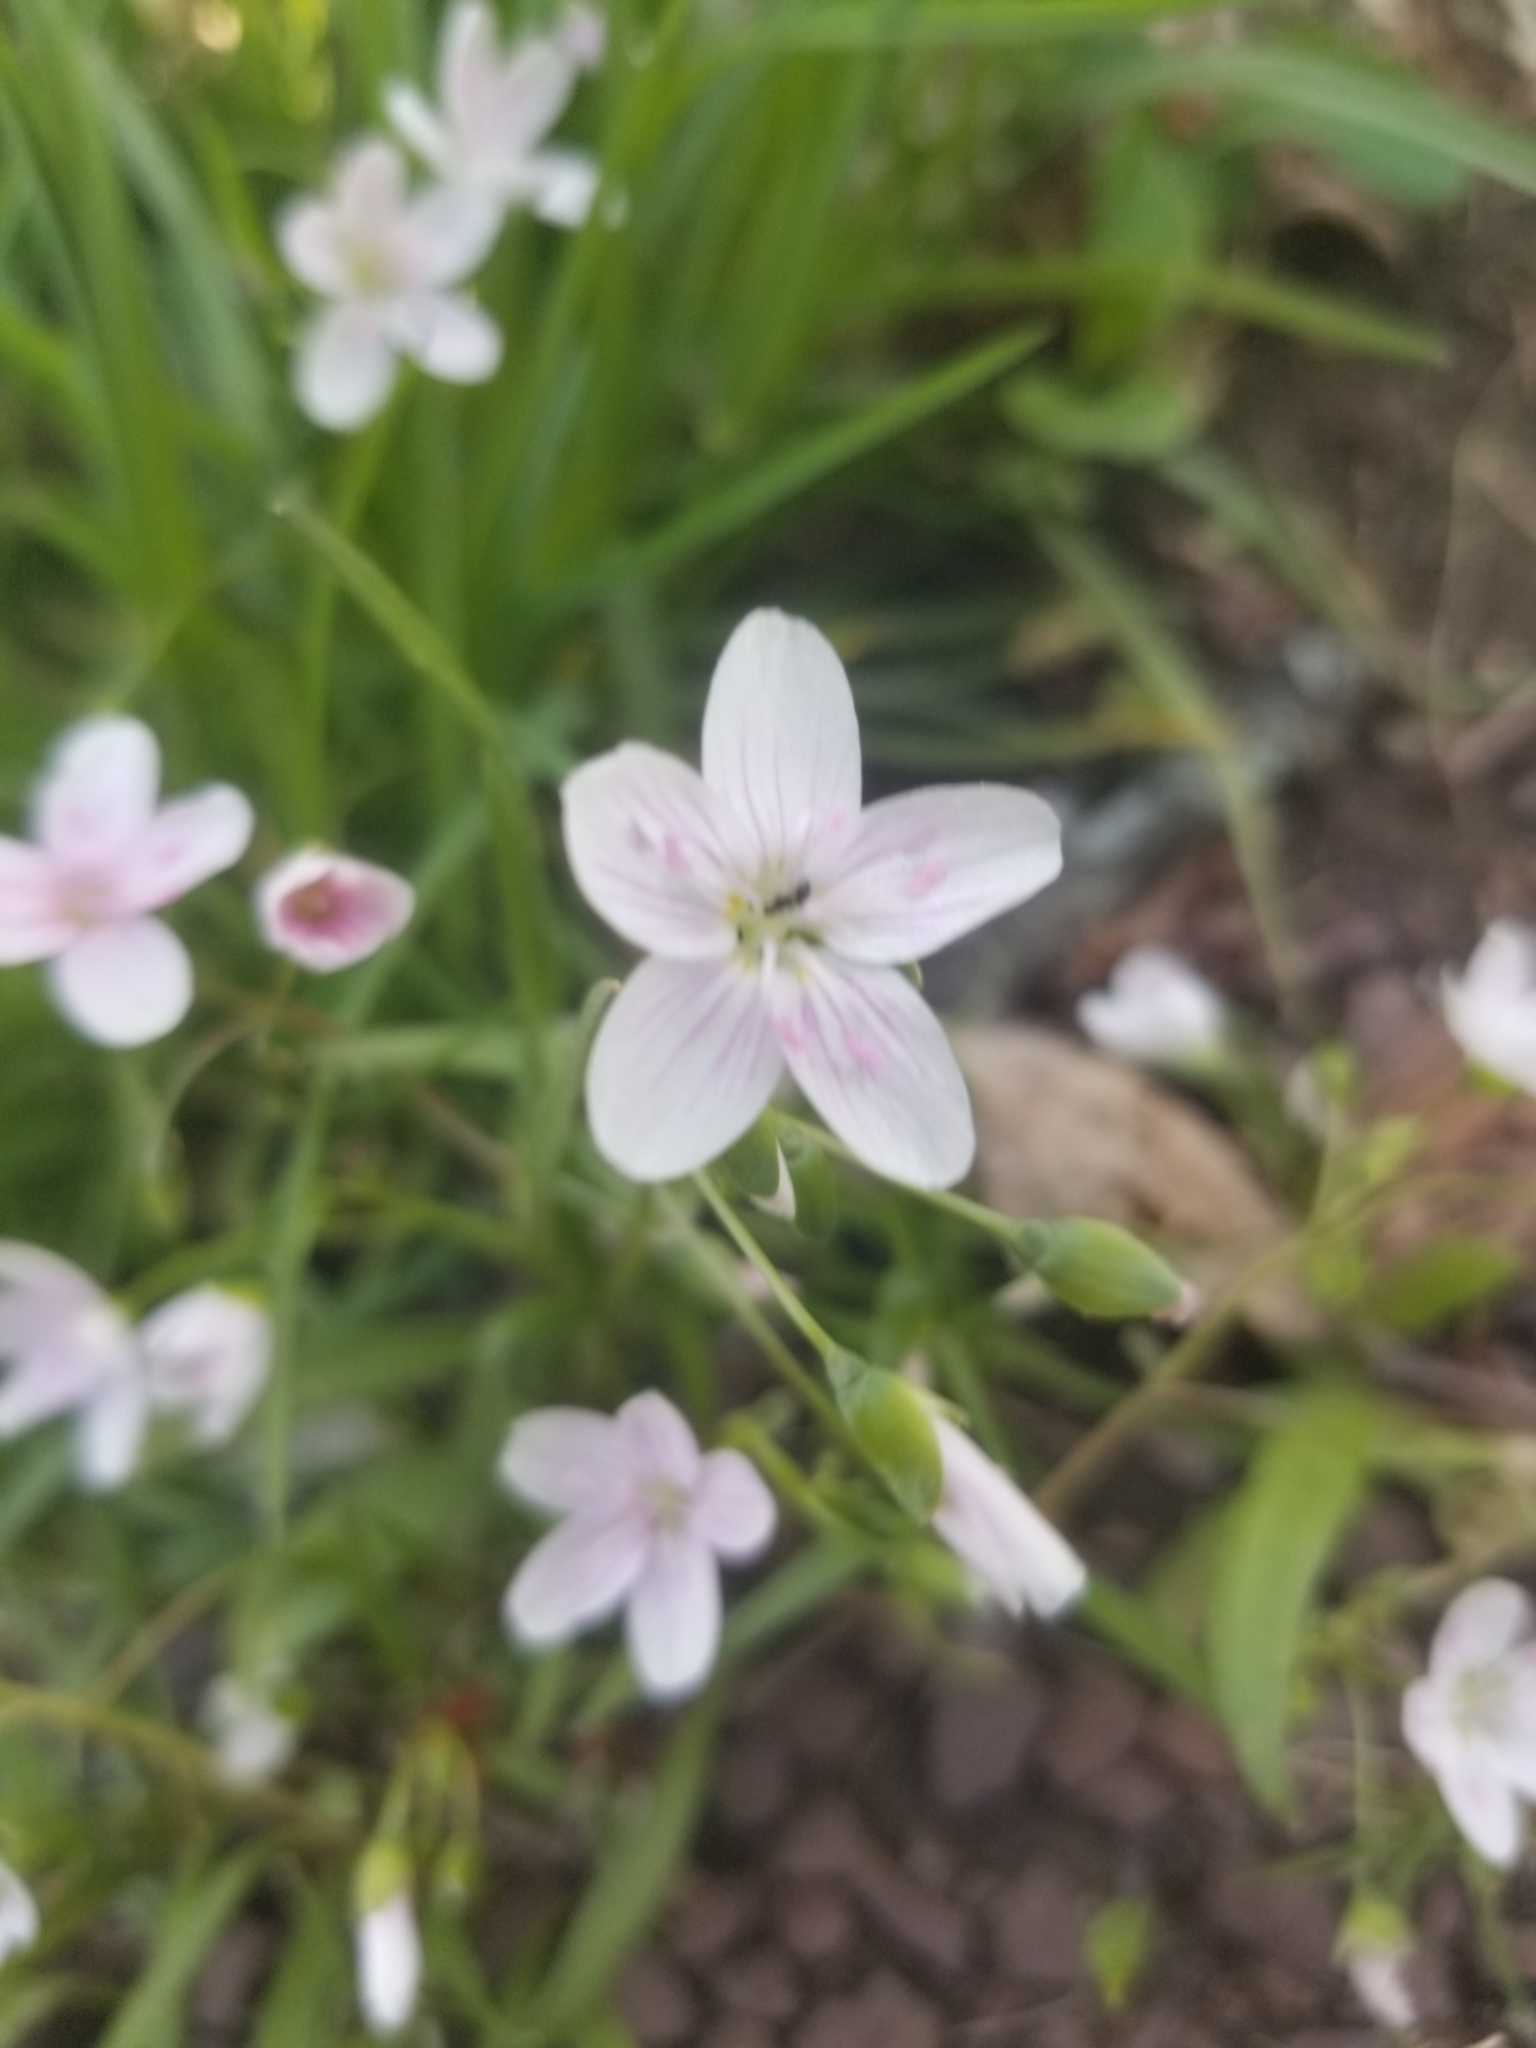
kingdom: Plantae
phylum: Tracheophyta
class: Magnoliopsida
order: Caryophyllales
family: Montiaceae
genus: Claytonia
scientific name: Claytonia virginica
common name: Virginia springbeauty
